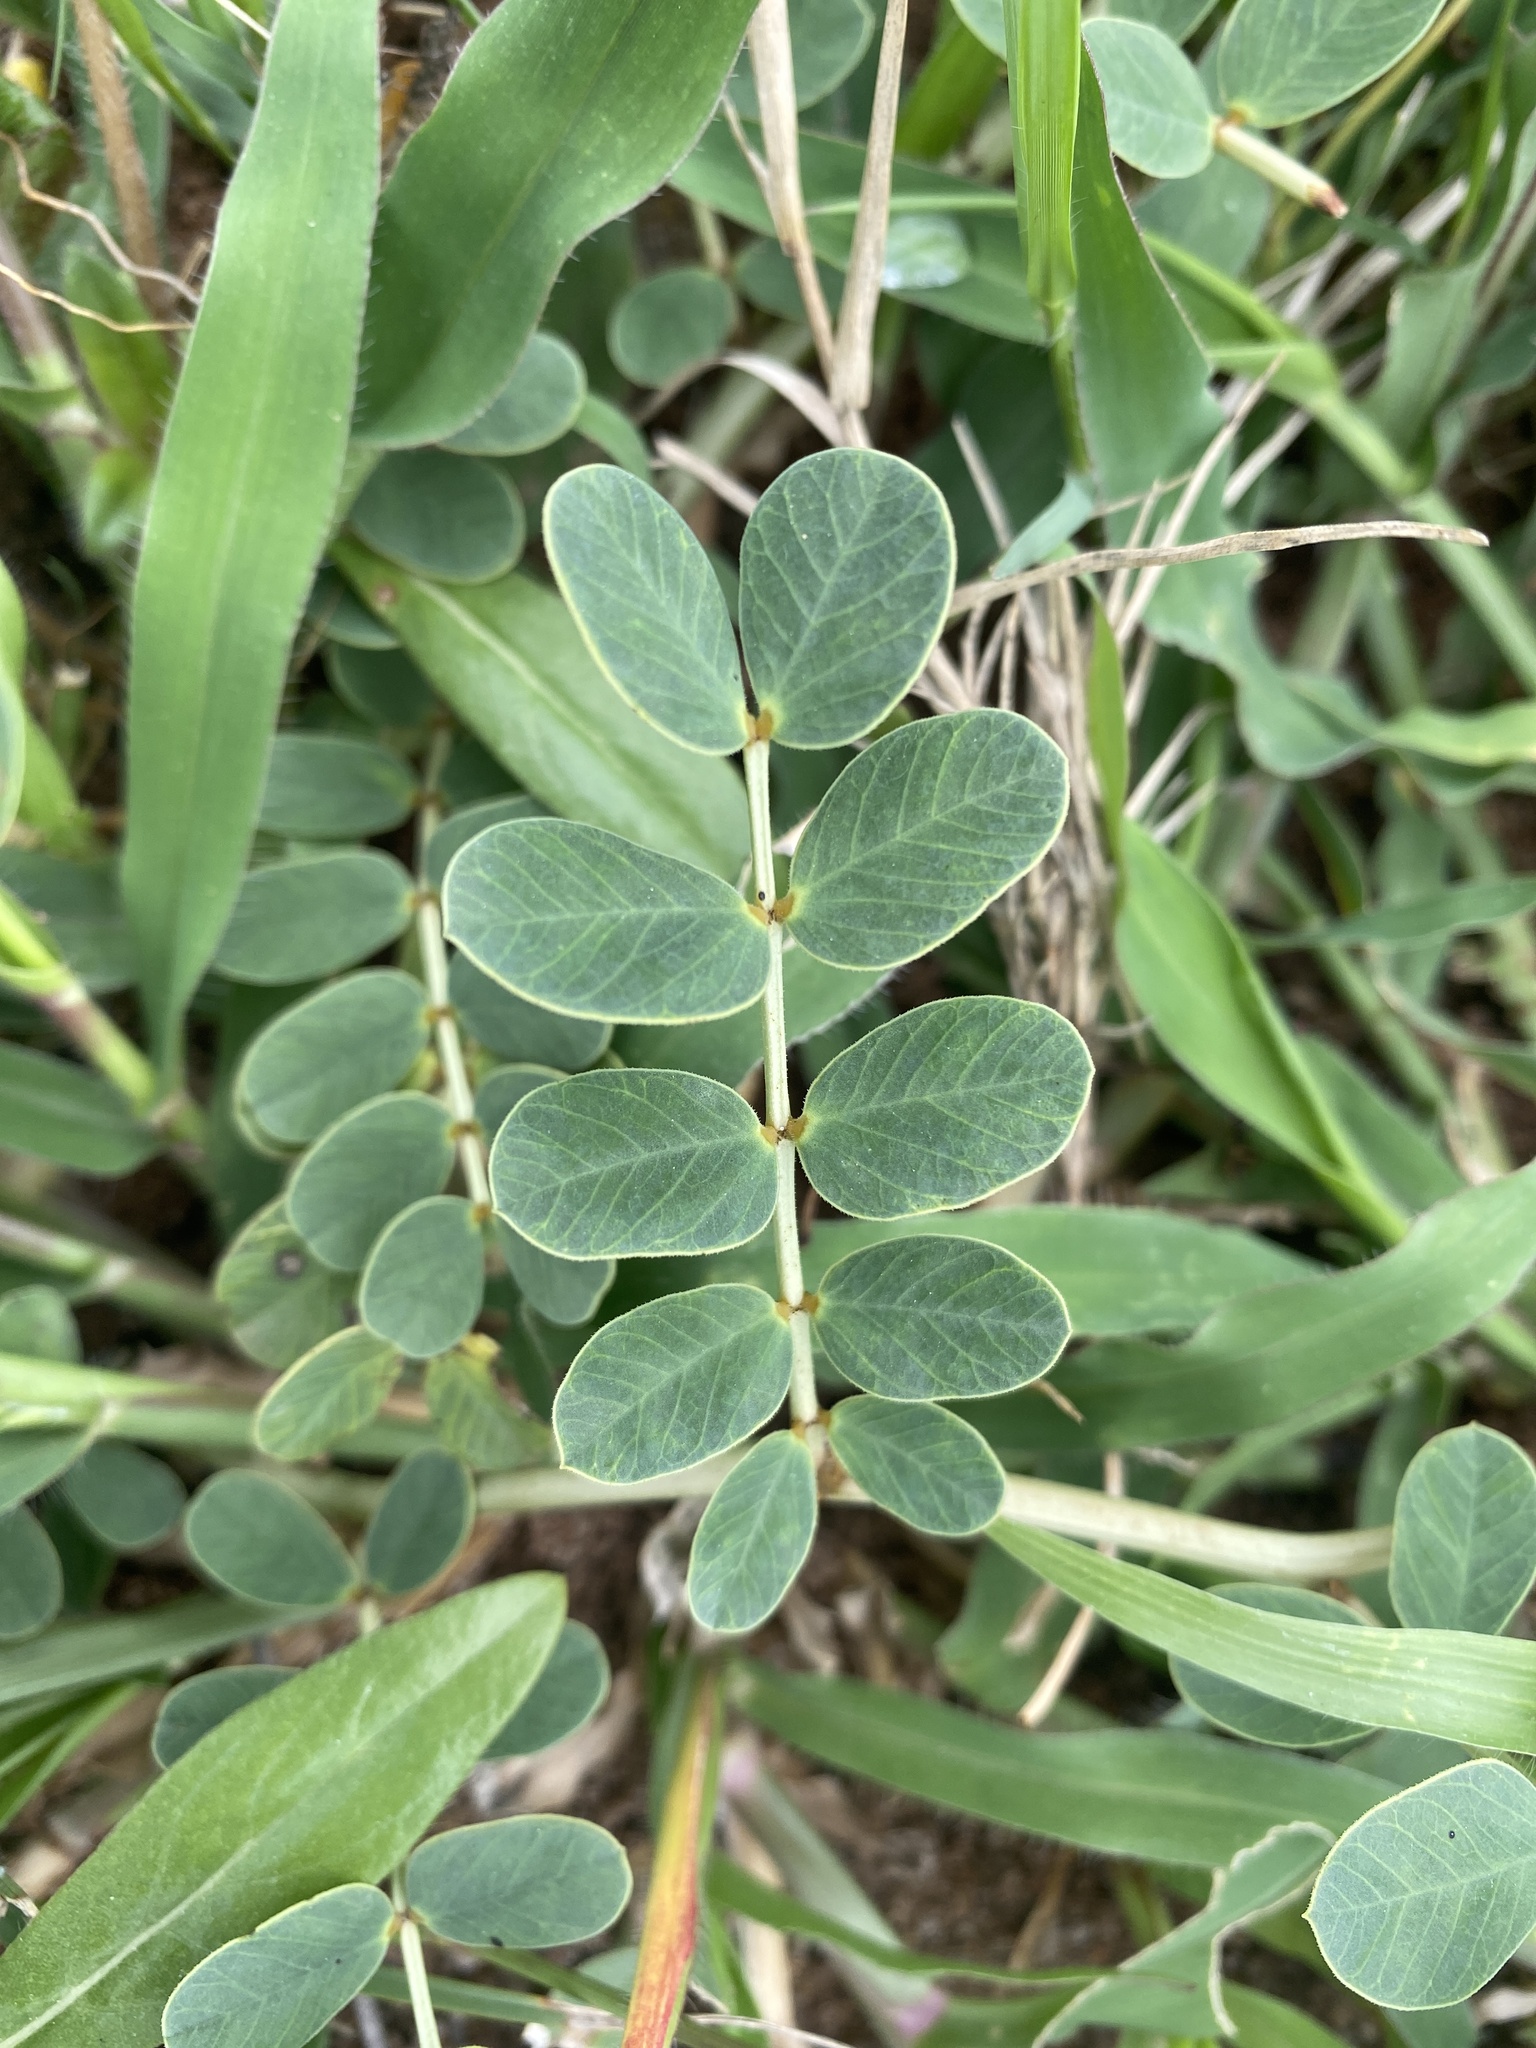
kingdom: Plantae
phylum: Tracheophyta
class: Magnoliopsida
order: Fabales
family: Fabaceae
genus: Senna
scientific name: Senna italica
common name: Port royal senna
